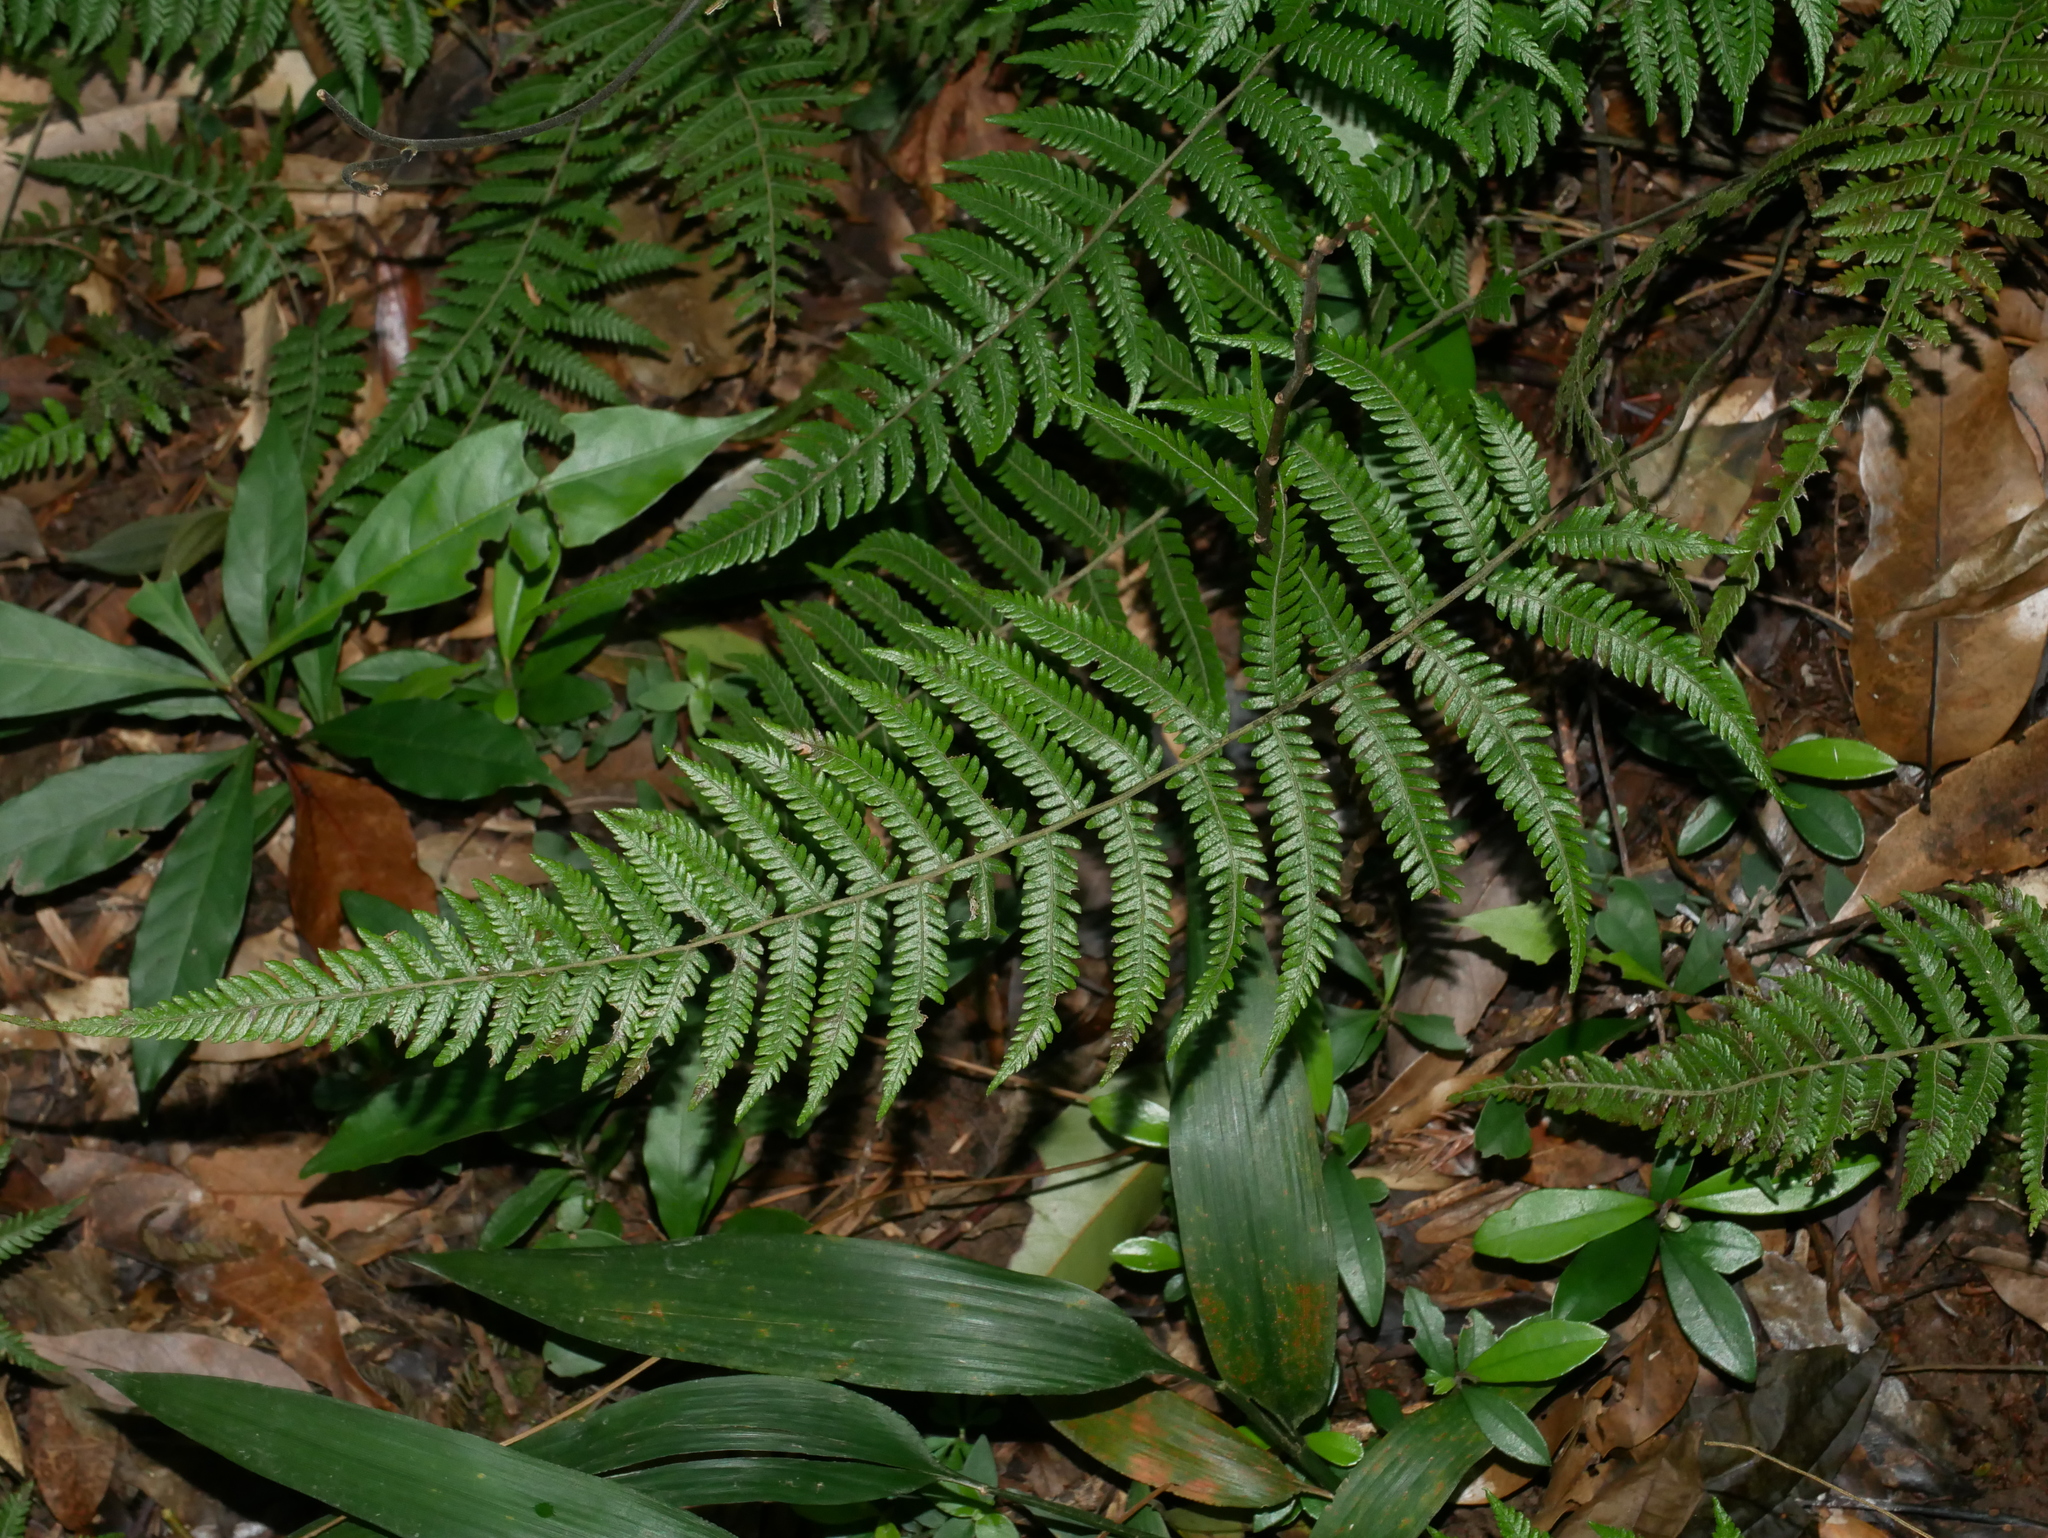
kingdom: Plantae
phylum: Tracheophyta
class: Polypodiopsida
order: Polypodiales
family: Thelypteridaceae
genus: Amauropelta
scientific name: Amauropelta angustifrons
